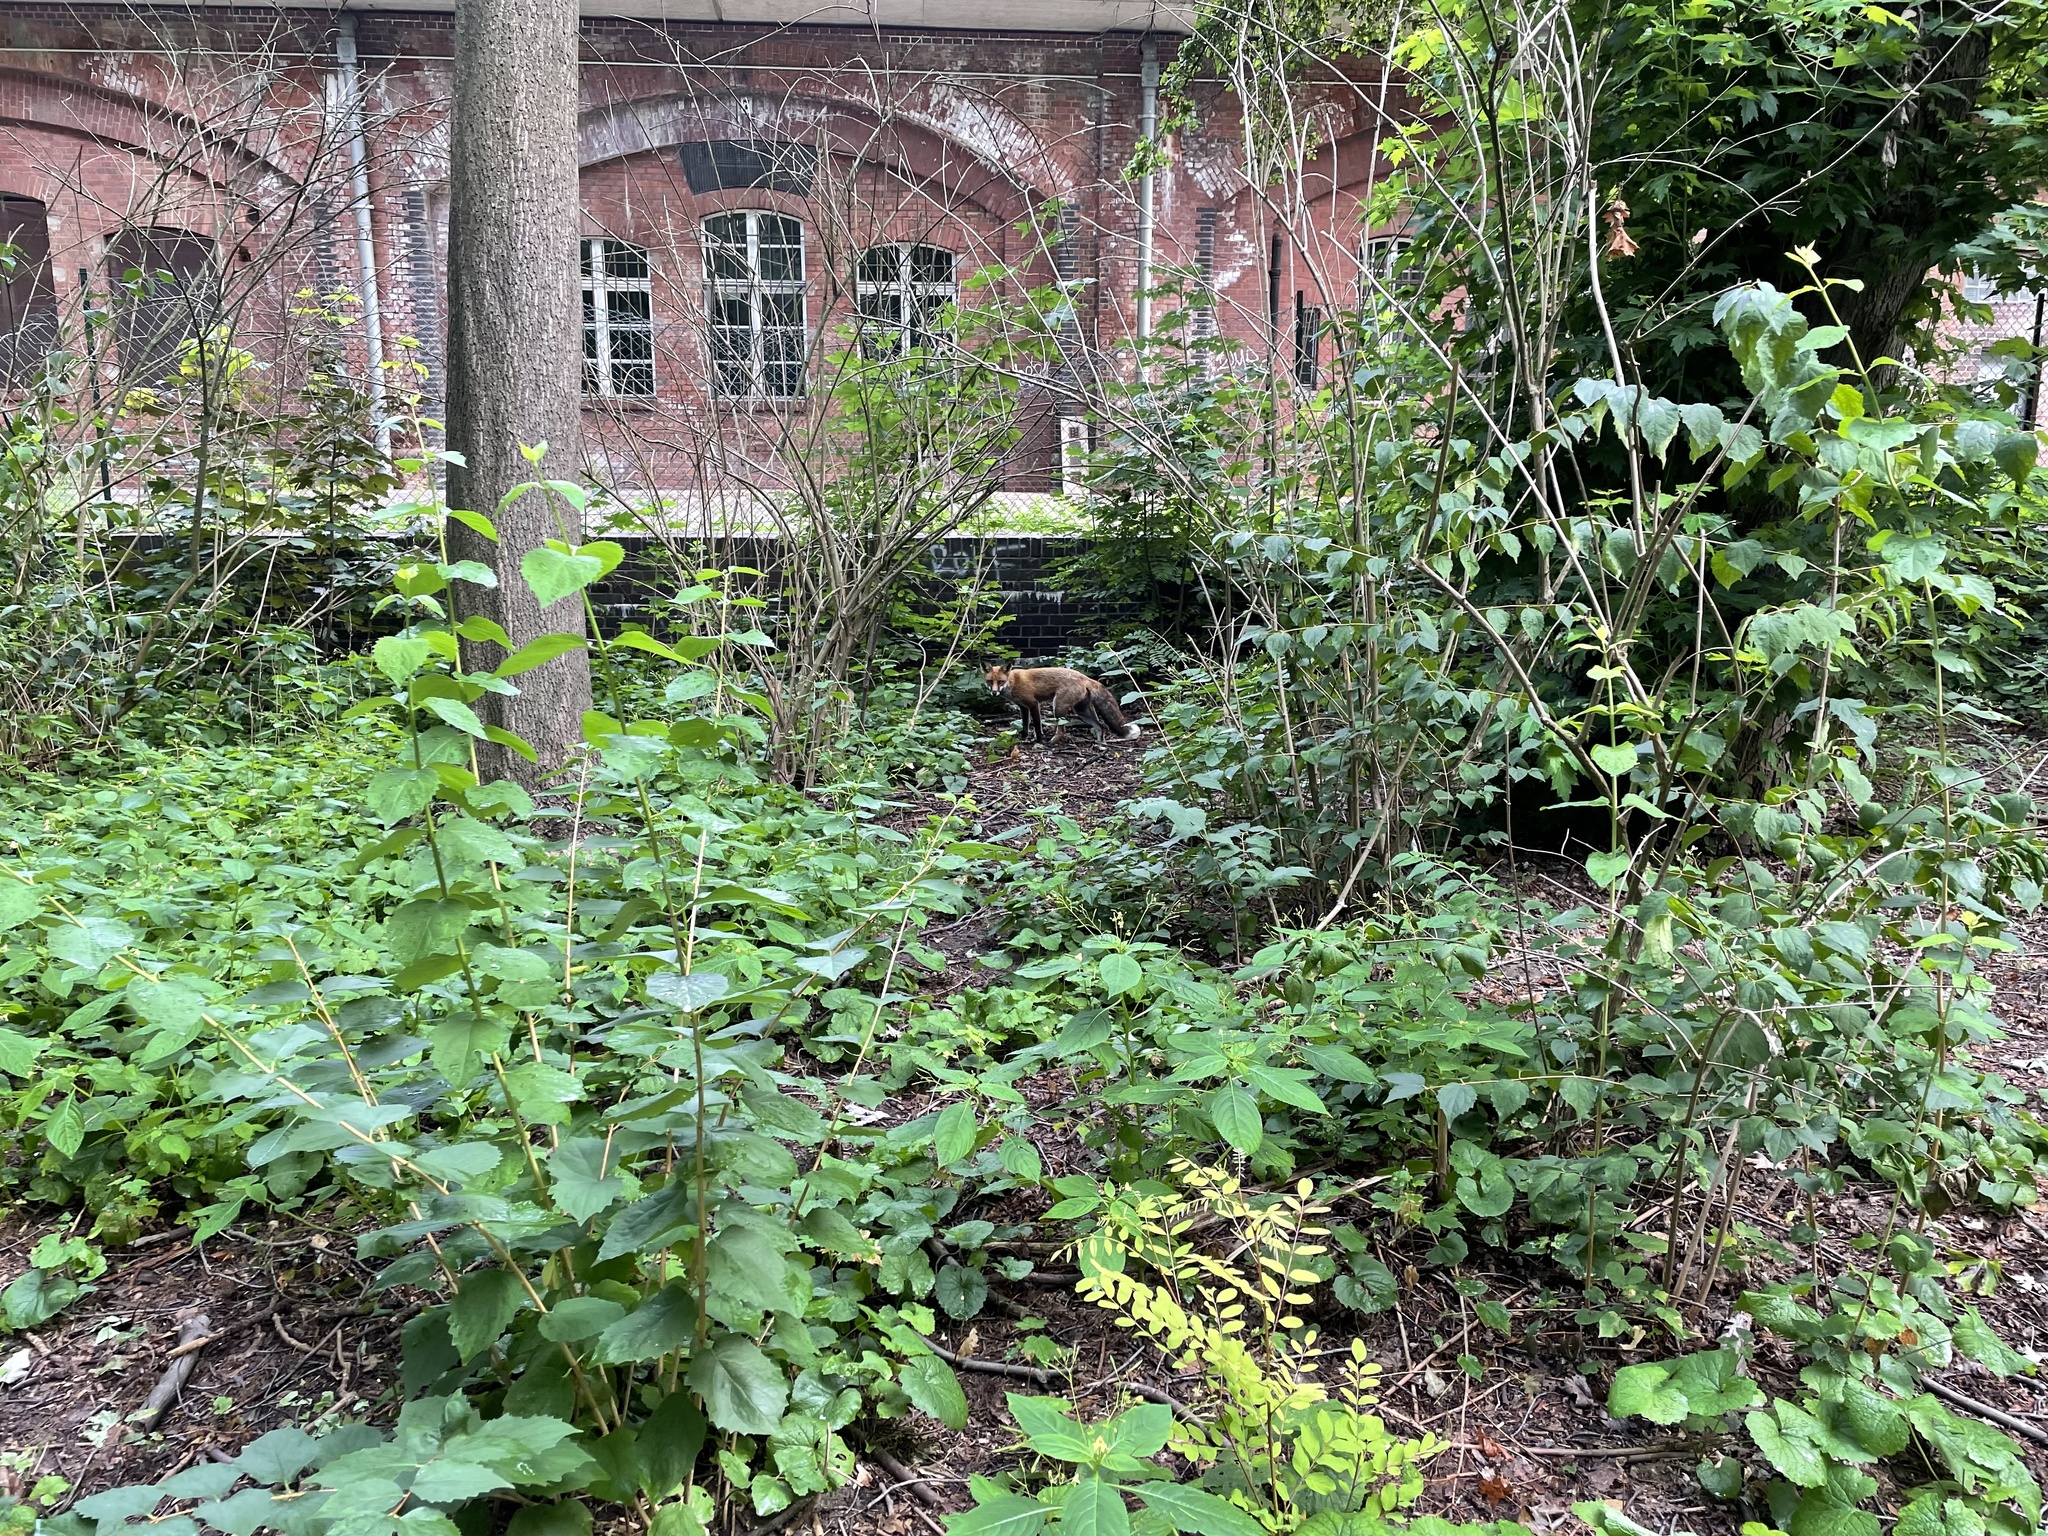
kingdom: Animalia
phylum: Chordata
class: Mammalia
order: Carnivora
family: Canidae
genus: Vulpes
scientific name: Vulpes vulpes
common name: Red fox
